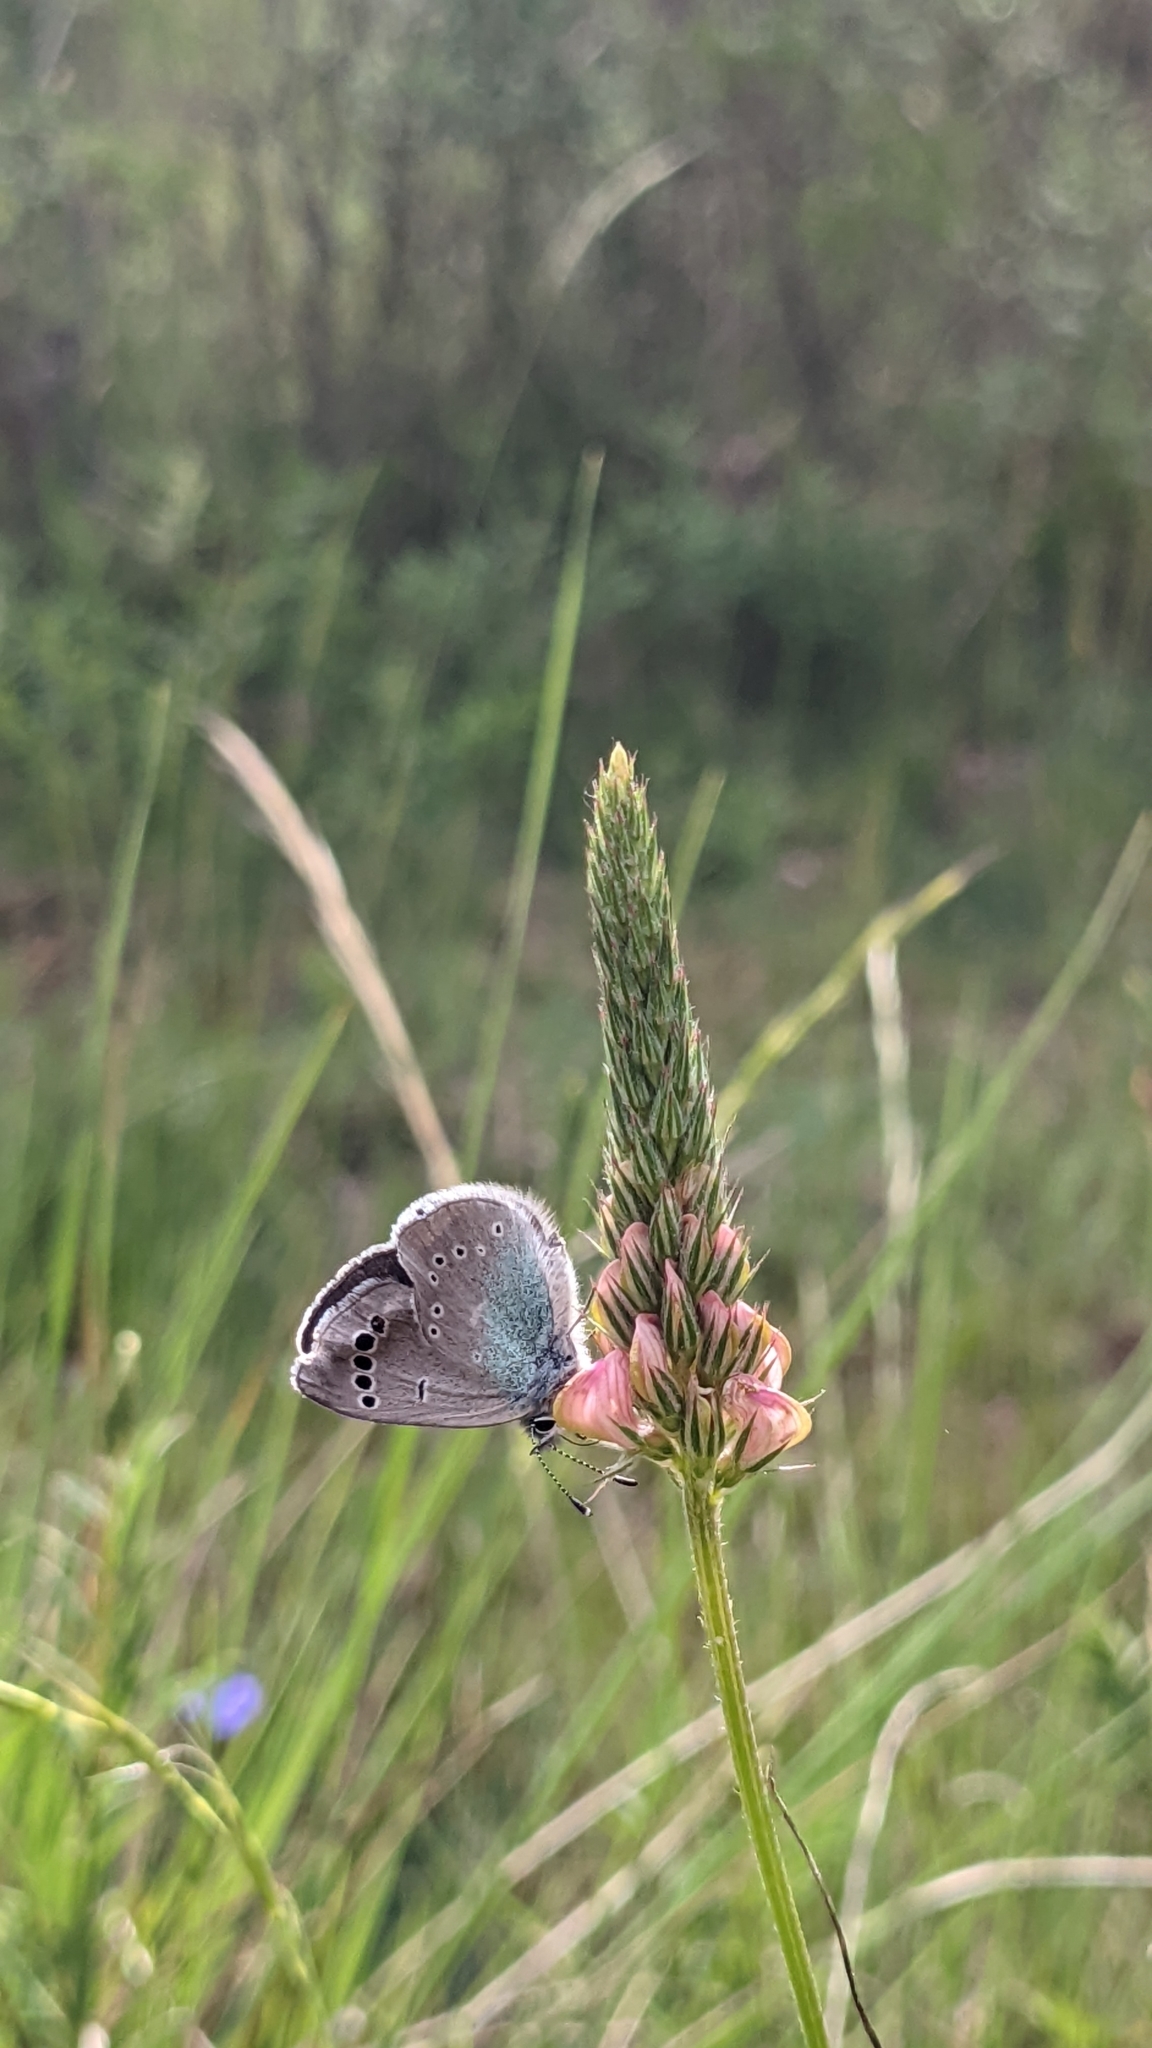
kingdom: Animalia
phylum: Arthropoda
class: Insecta
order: Lepidoptera
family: Lycaenidae
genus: Glaucopsyche
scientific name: Glaucopsyche alexis
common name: Green-underside blue
